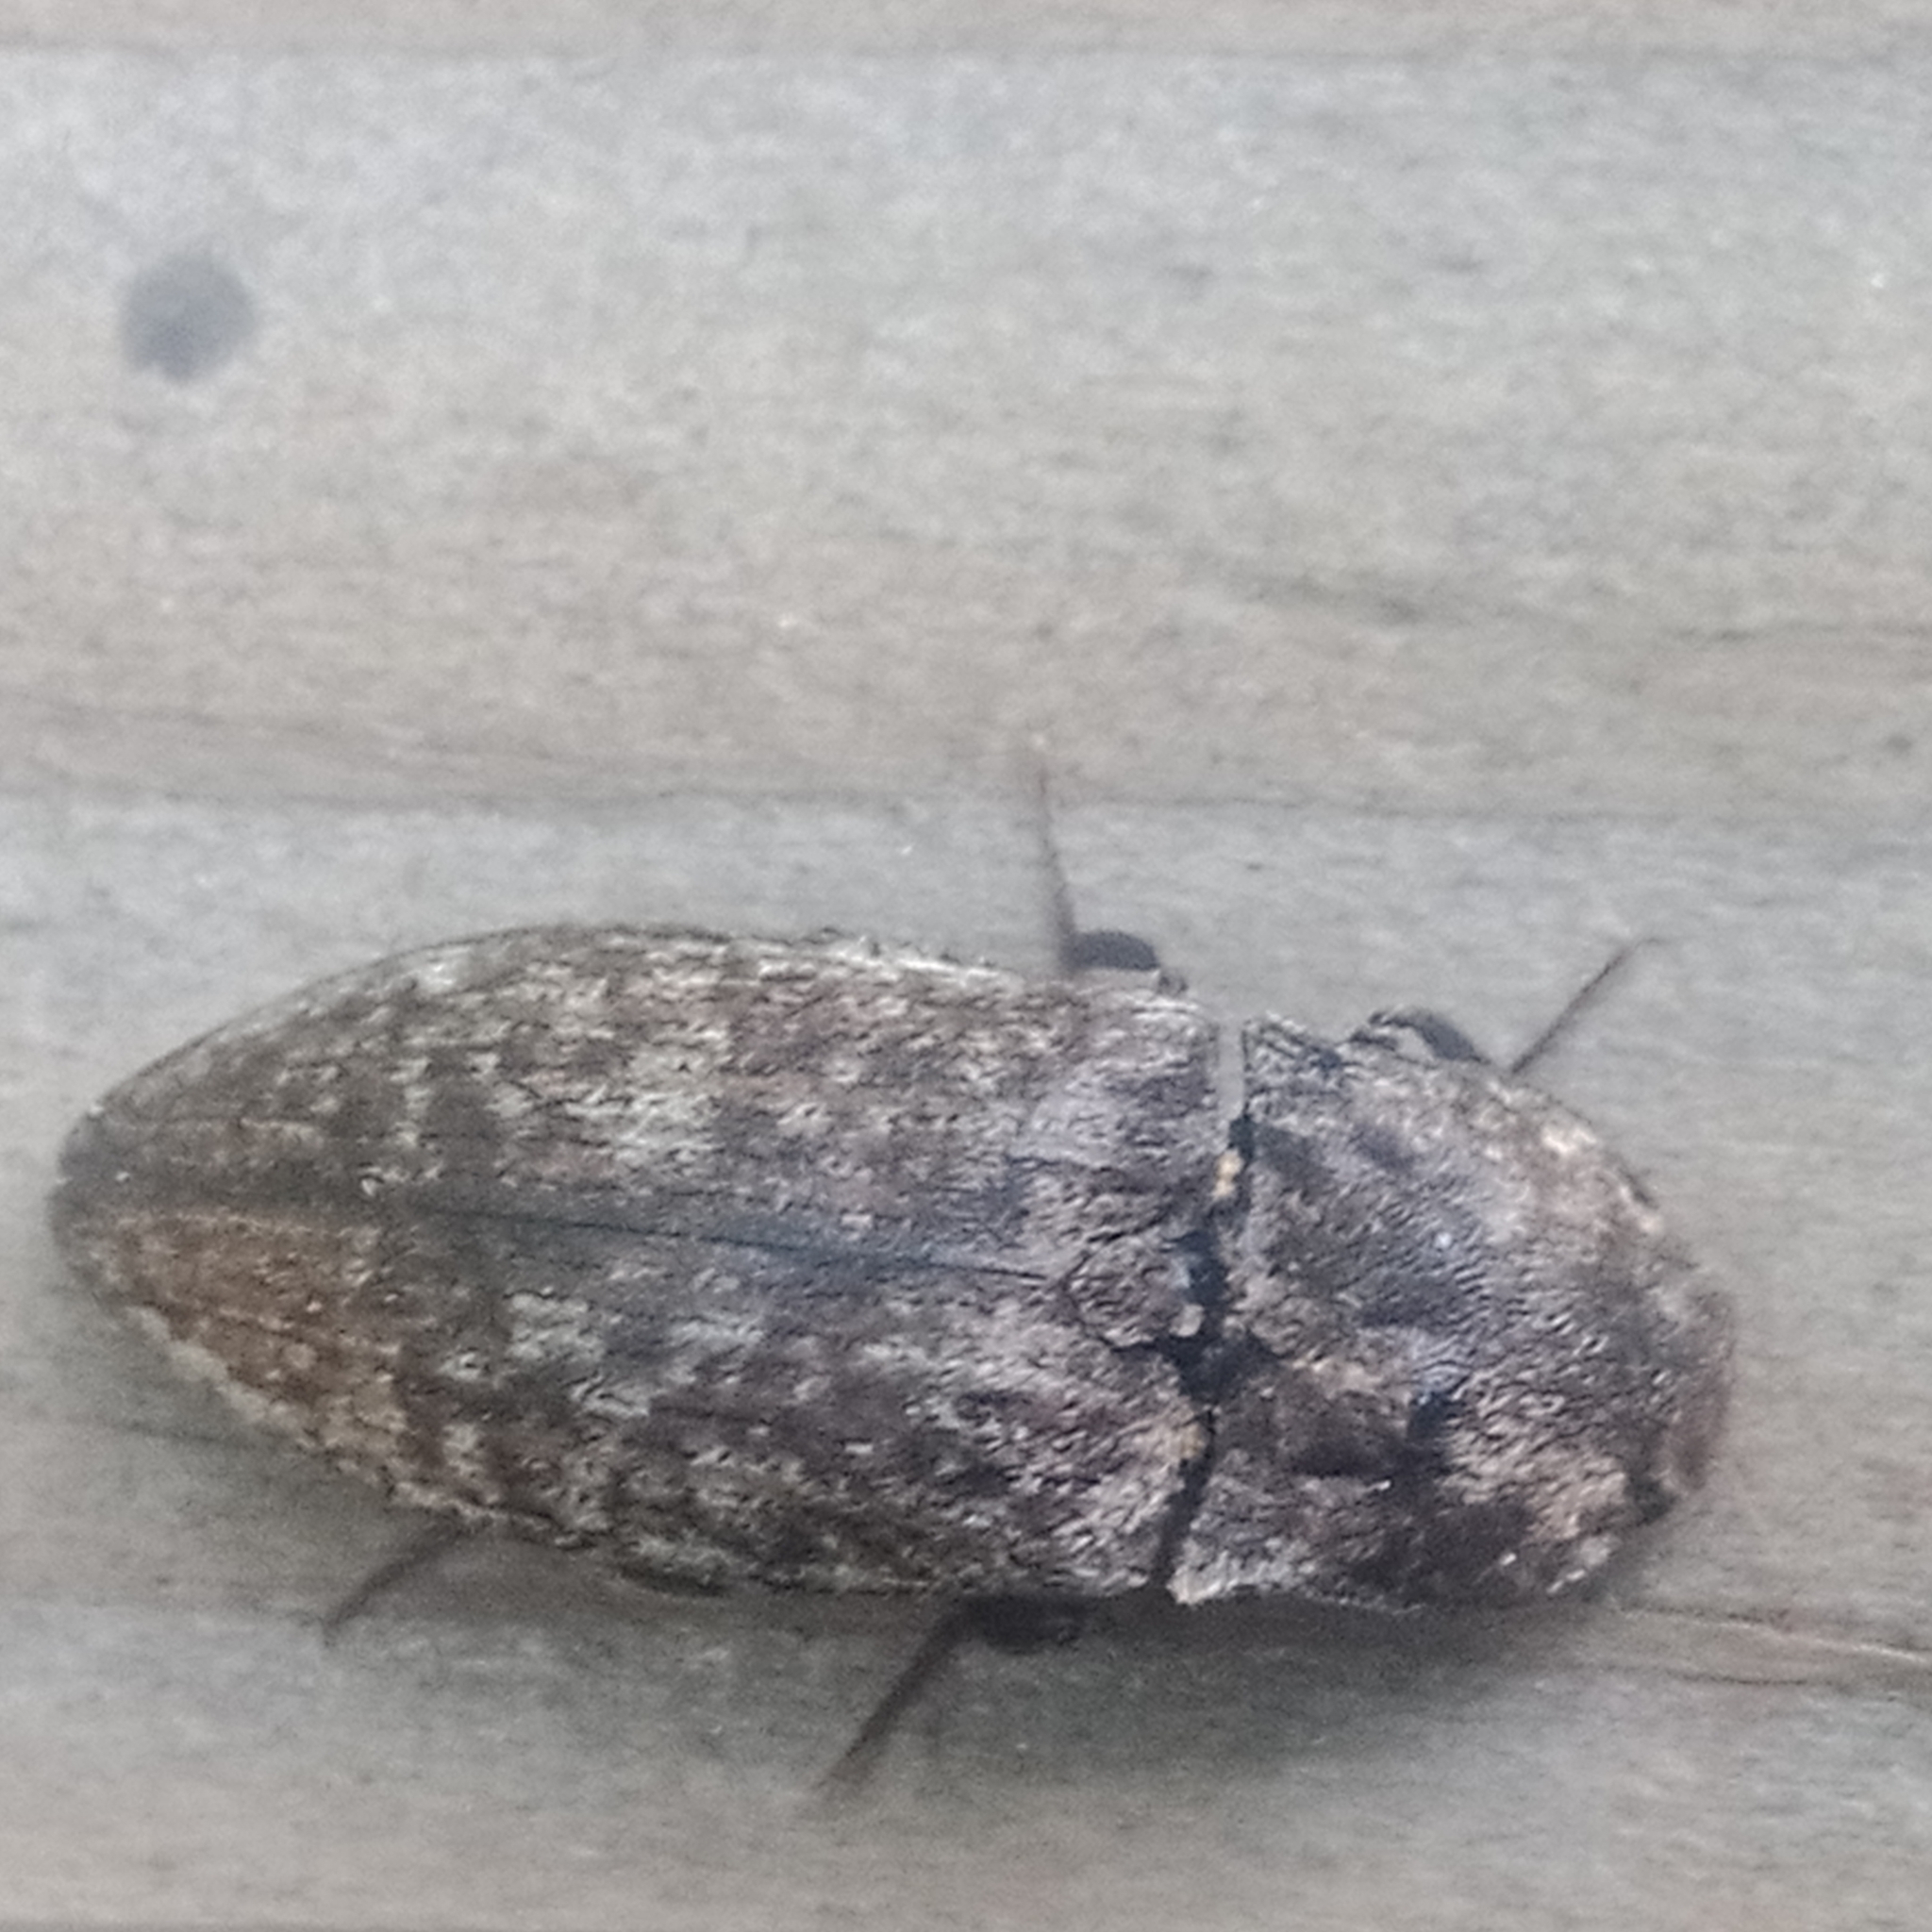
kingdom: Animalia
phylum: Arthropoda
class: Insecta
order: Coleoptera
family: Elateridae
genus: Agrypnus
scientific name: Agrypnus murinus
